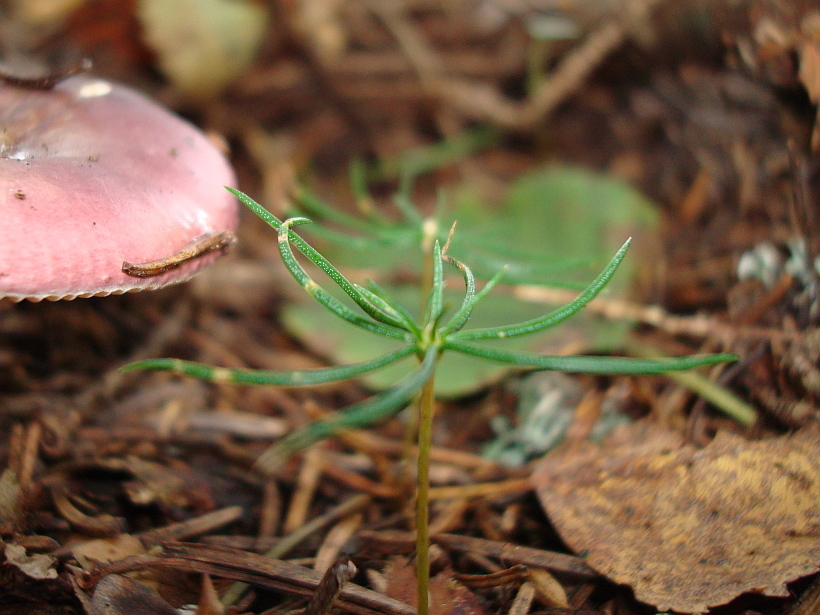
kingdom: Plantae
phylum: Tracheophyta
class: Pinopsida
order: Pinales
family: Pinaceae
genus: Picea
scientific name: Picea abies
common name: Norway spruce
